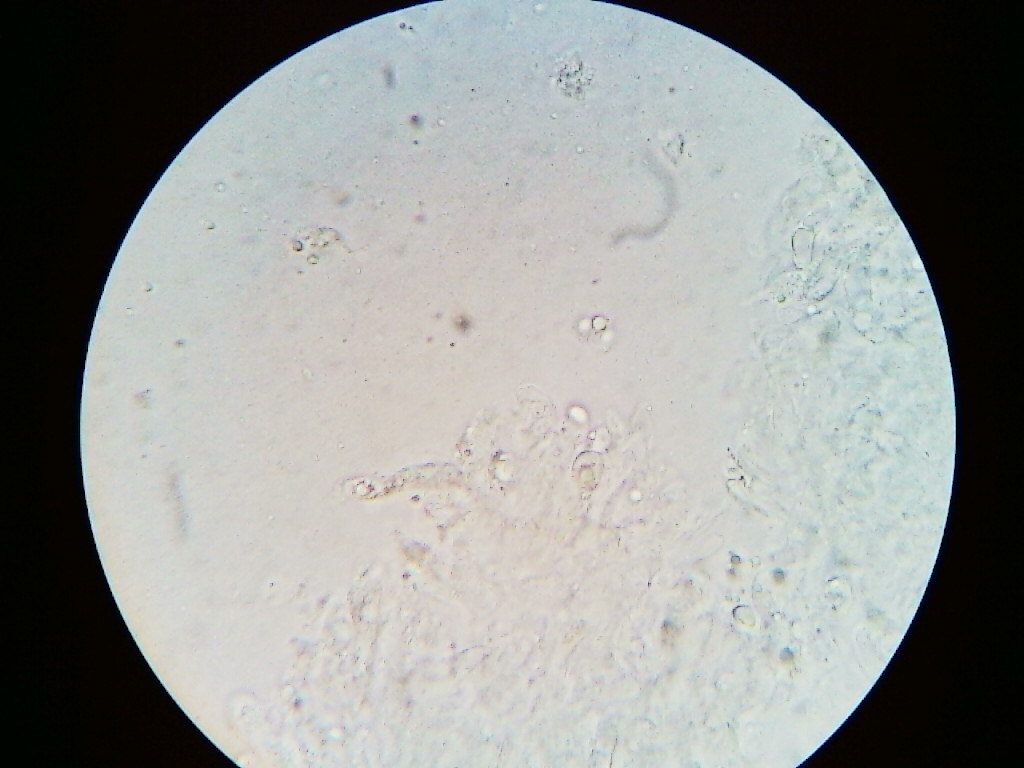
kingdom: Fungi
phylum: Basidiomycota
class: Agaricomycetes
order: Agaricales
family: Porotheleaceae
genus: Phloeomana
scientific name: Phloeomana speirea
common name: Bark bonnet
